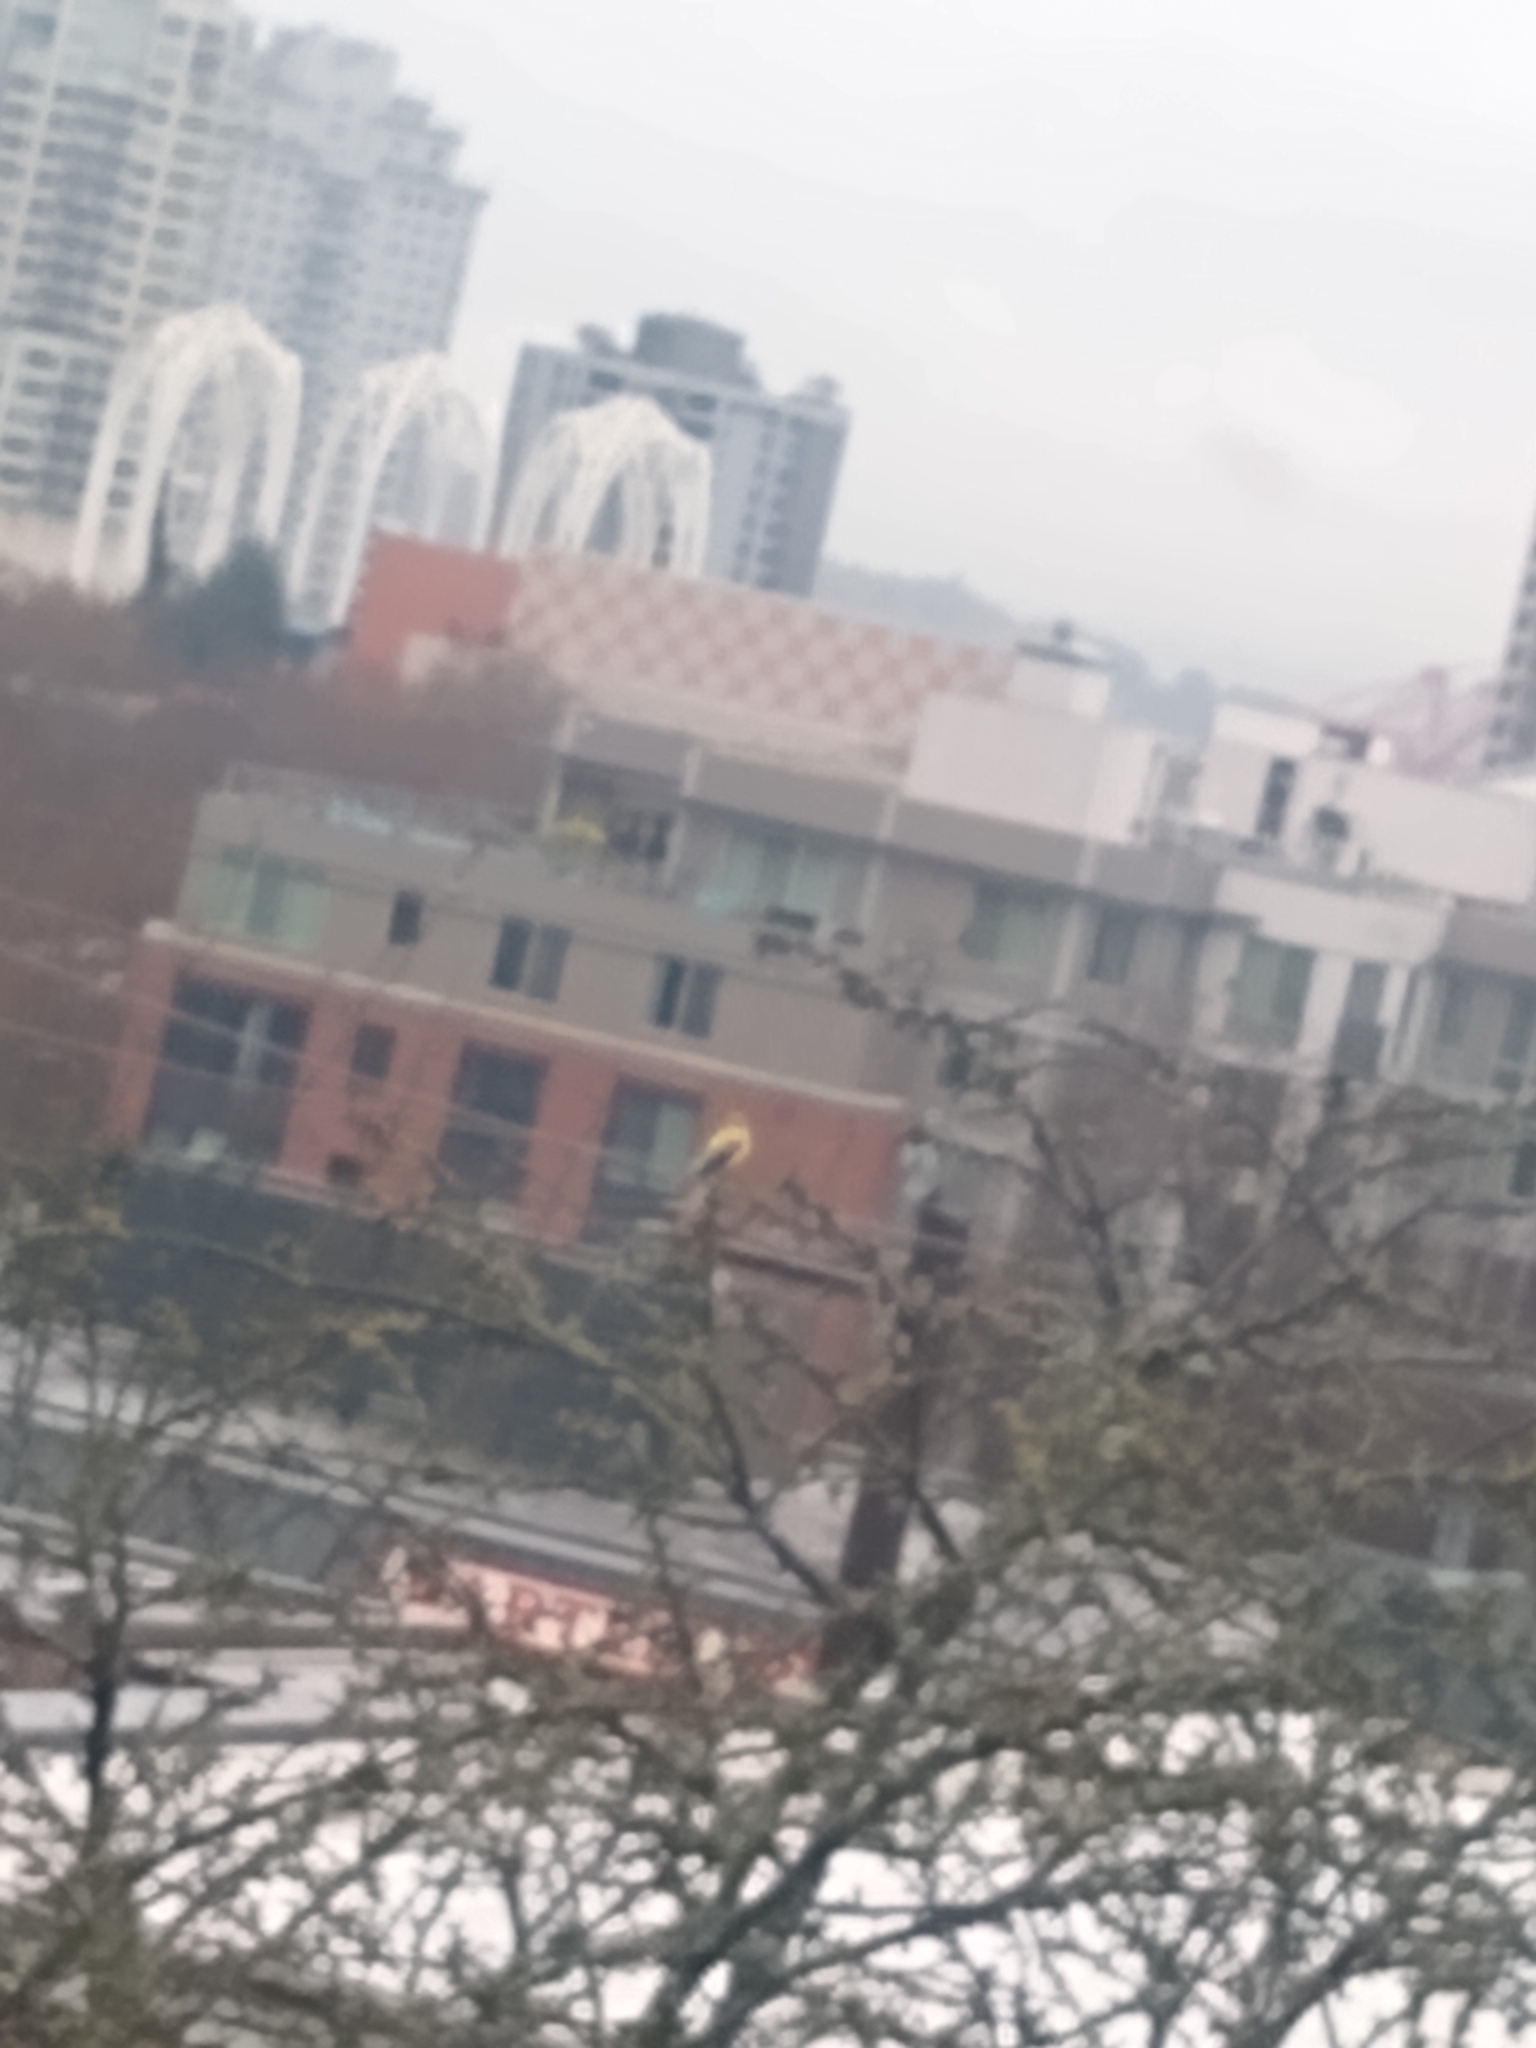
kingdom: Animalia
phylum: Chordata
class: Aves
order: Passeriformes
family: Fringillidae
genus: Spinus
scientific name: Spinus tristis
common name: American goldfinch
